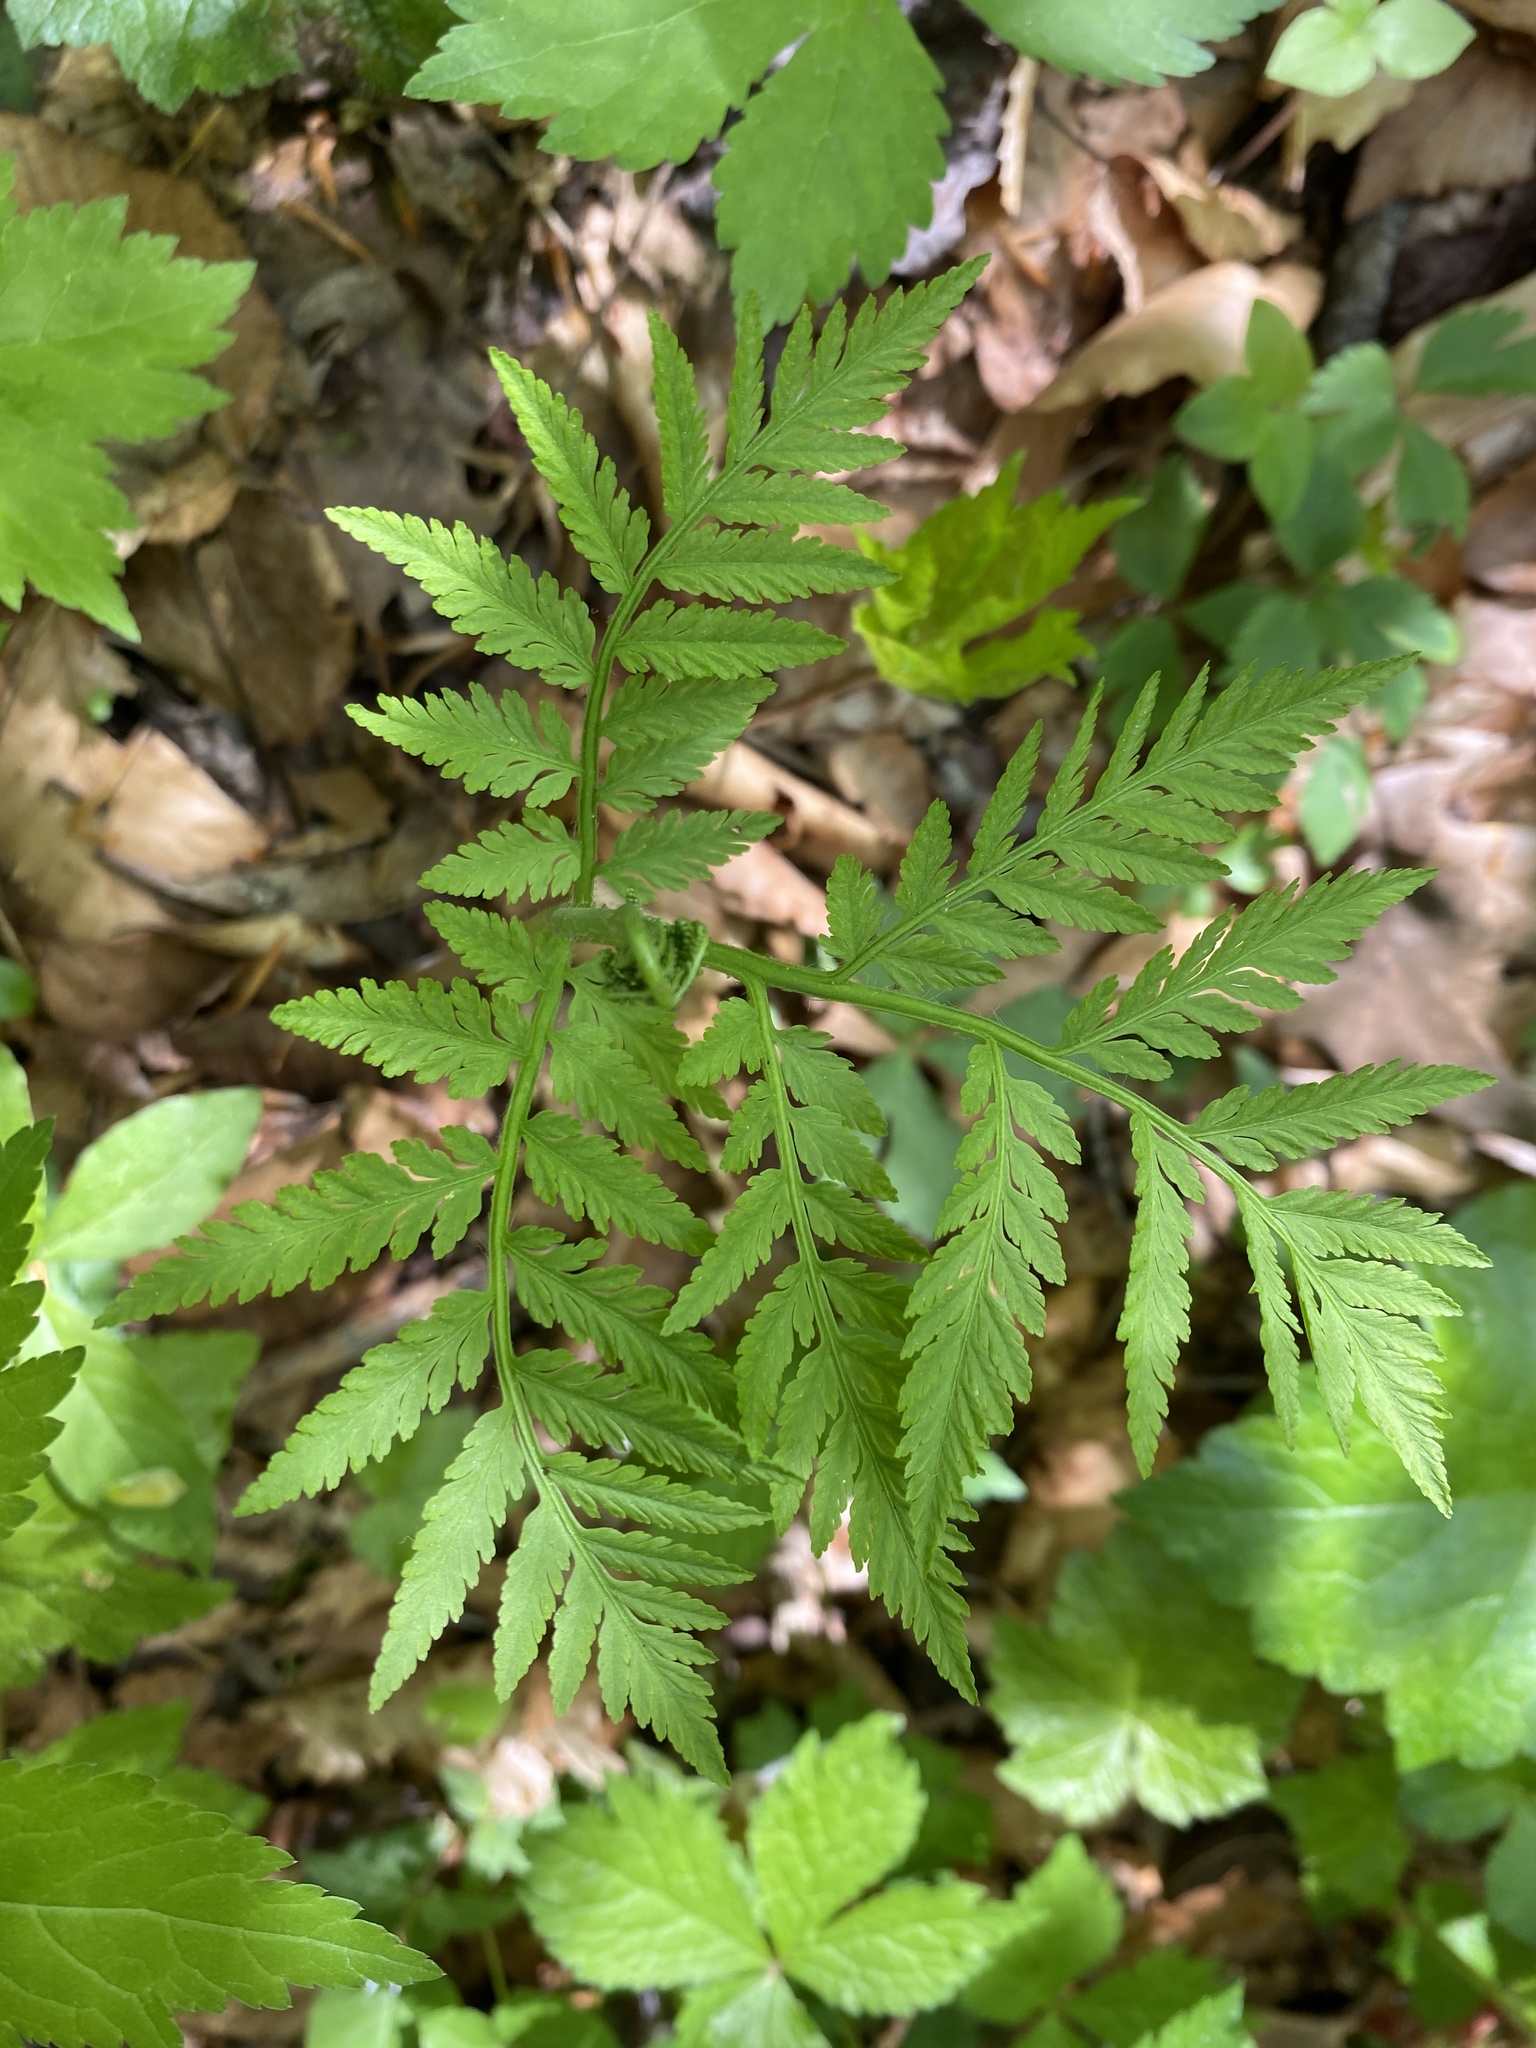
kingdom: Plantae
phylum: Tracheophyta
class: Polypodiopsida
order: Ophioglossales
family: Ophioglossaceae
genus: Botrypus
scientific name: Botrypus virginianus
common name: Common grapefern
